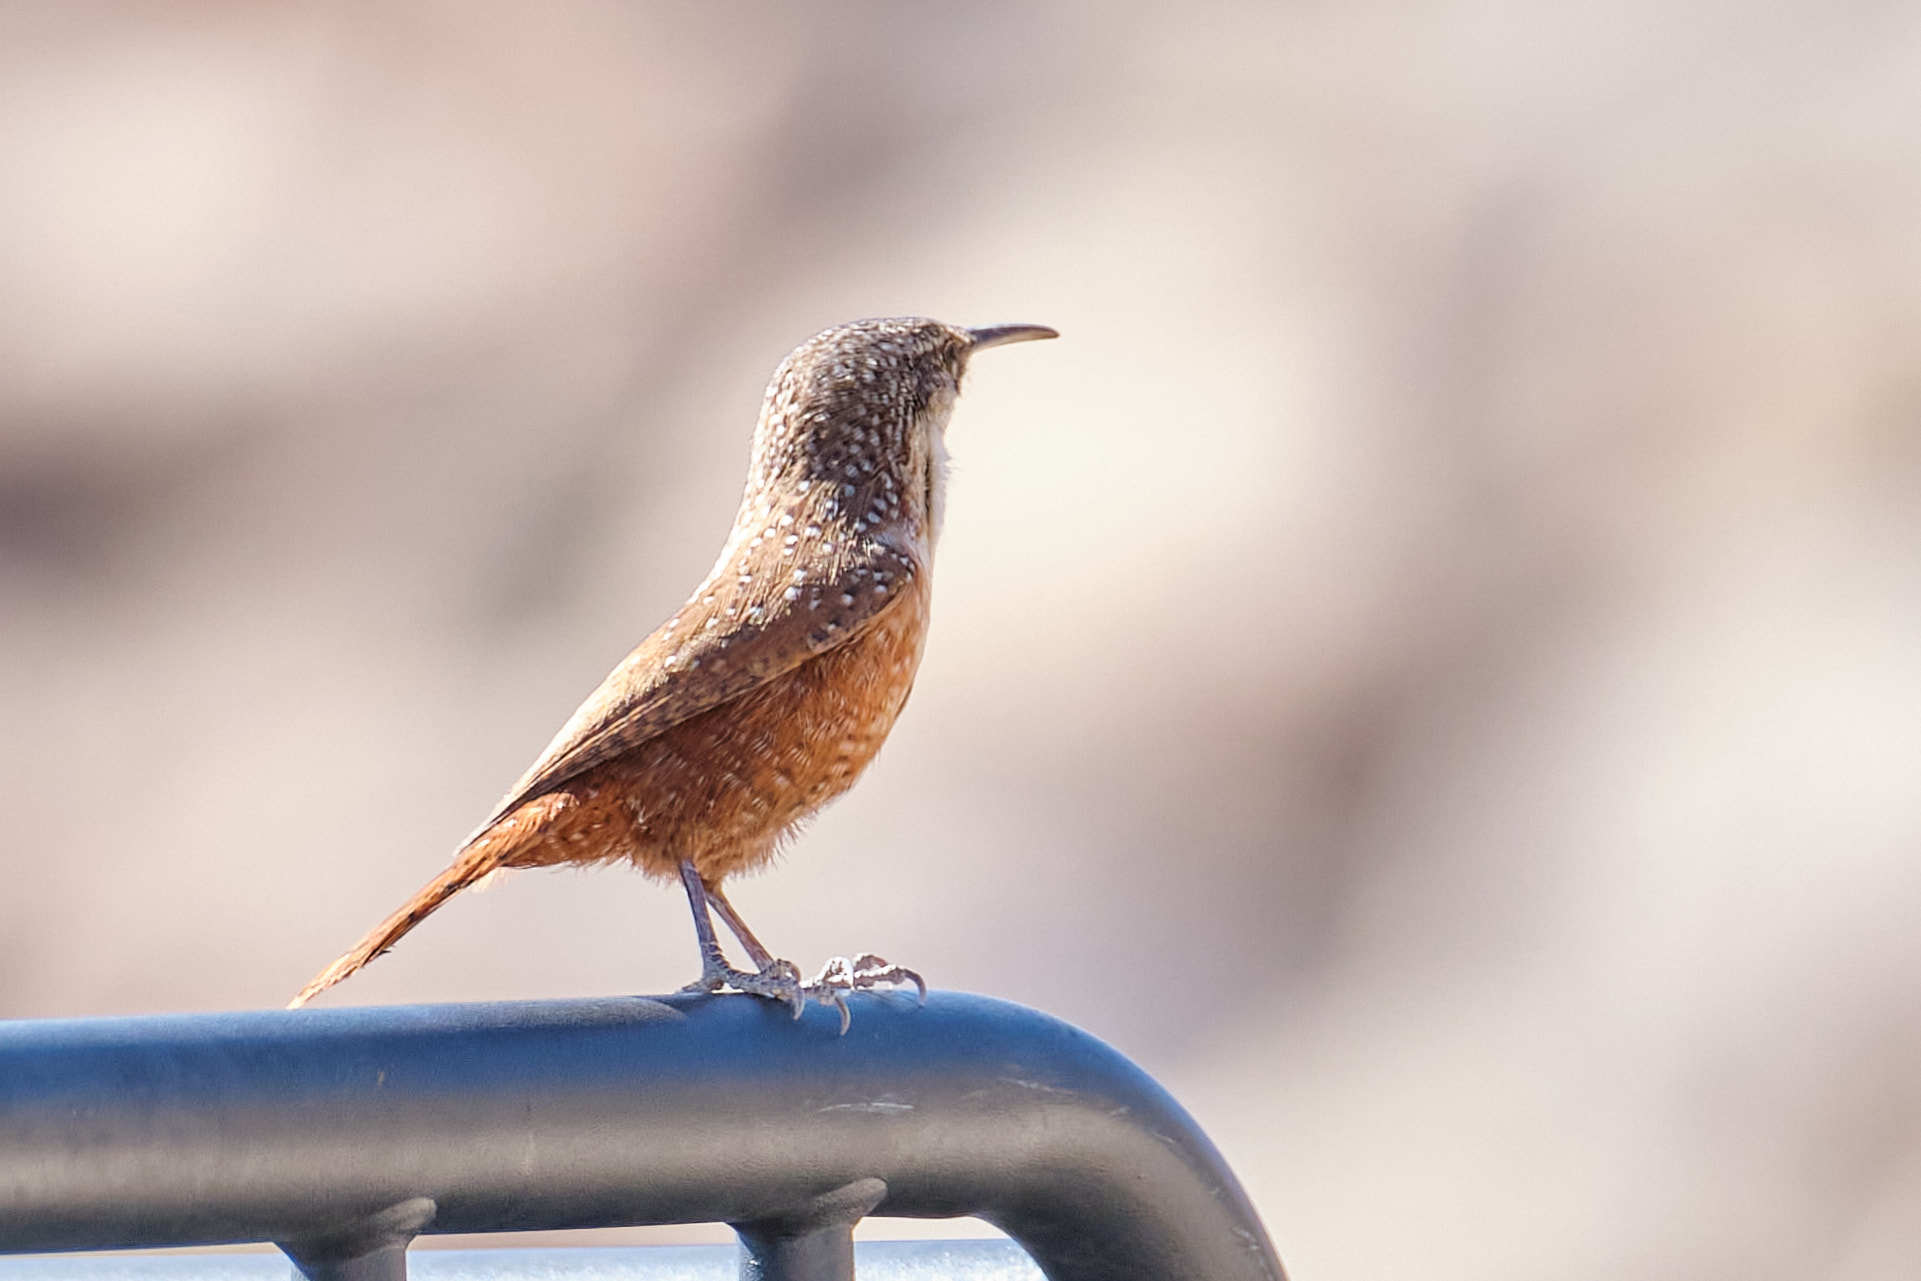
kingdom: Animalia
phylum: Chordata
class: Aves
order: Passeriformes
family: Troglodytidae
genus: Catherpes
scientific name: Catherpes mexicanus
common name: Canyon wren
